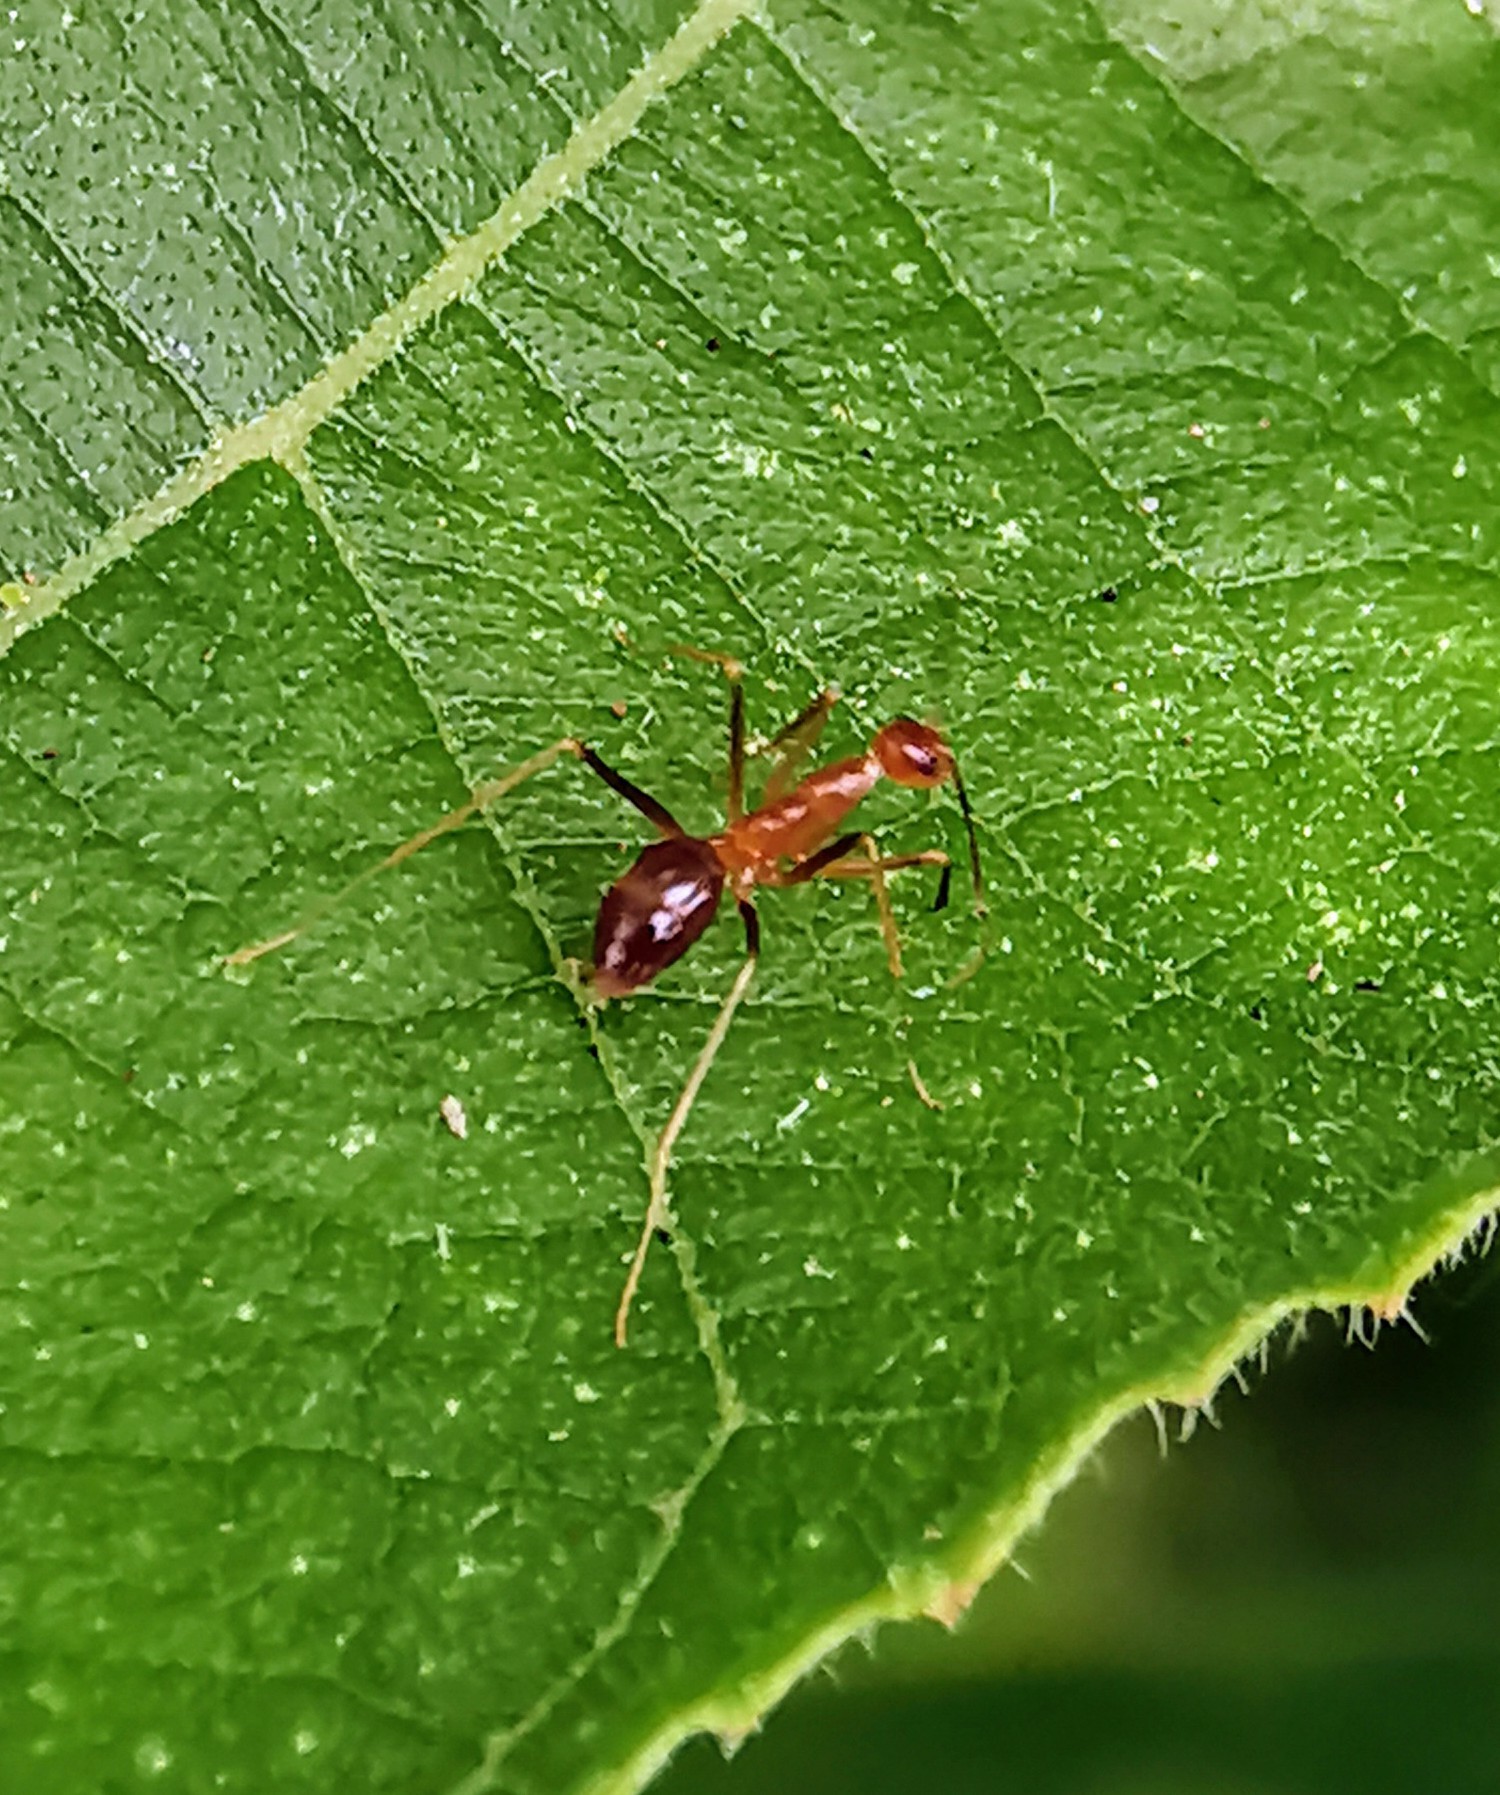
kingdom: Animalia
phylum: Arthropoda
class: Insecta
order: Hymenoptera
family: Formicidae
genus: Anoplolepis
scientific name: Anoplolepis gracilipes
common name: Ant
